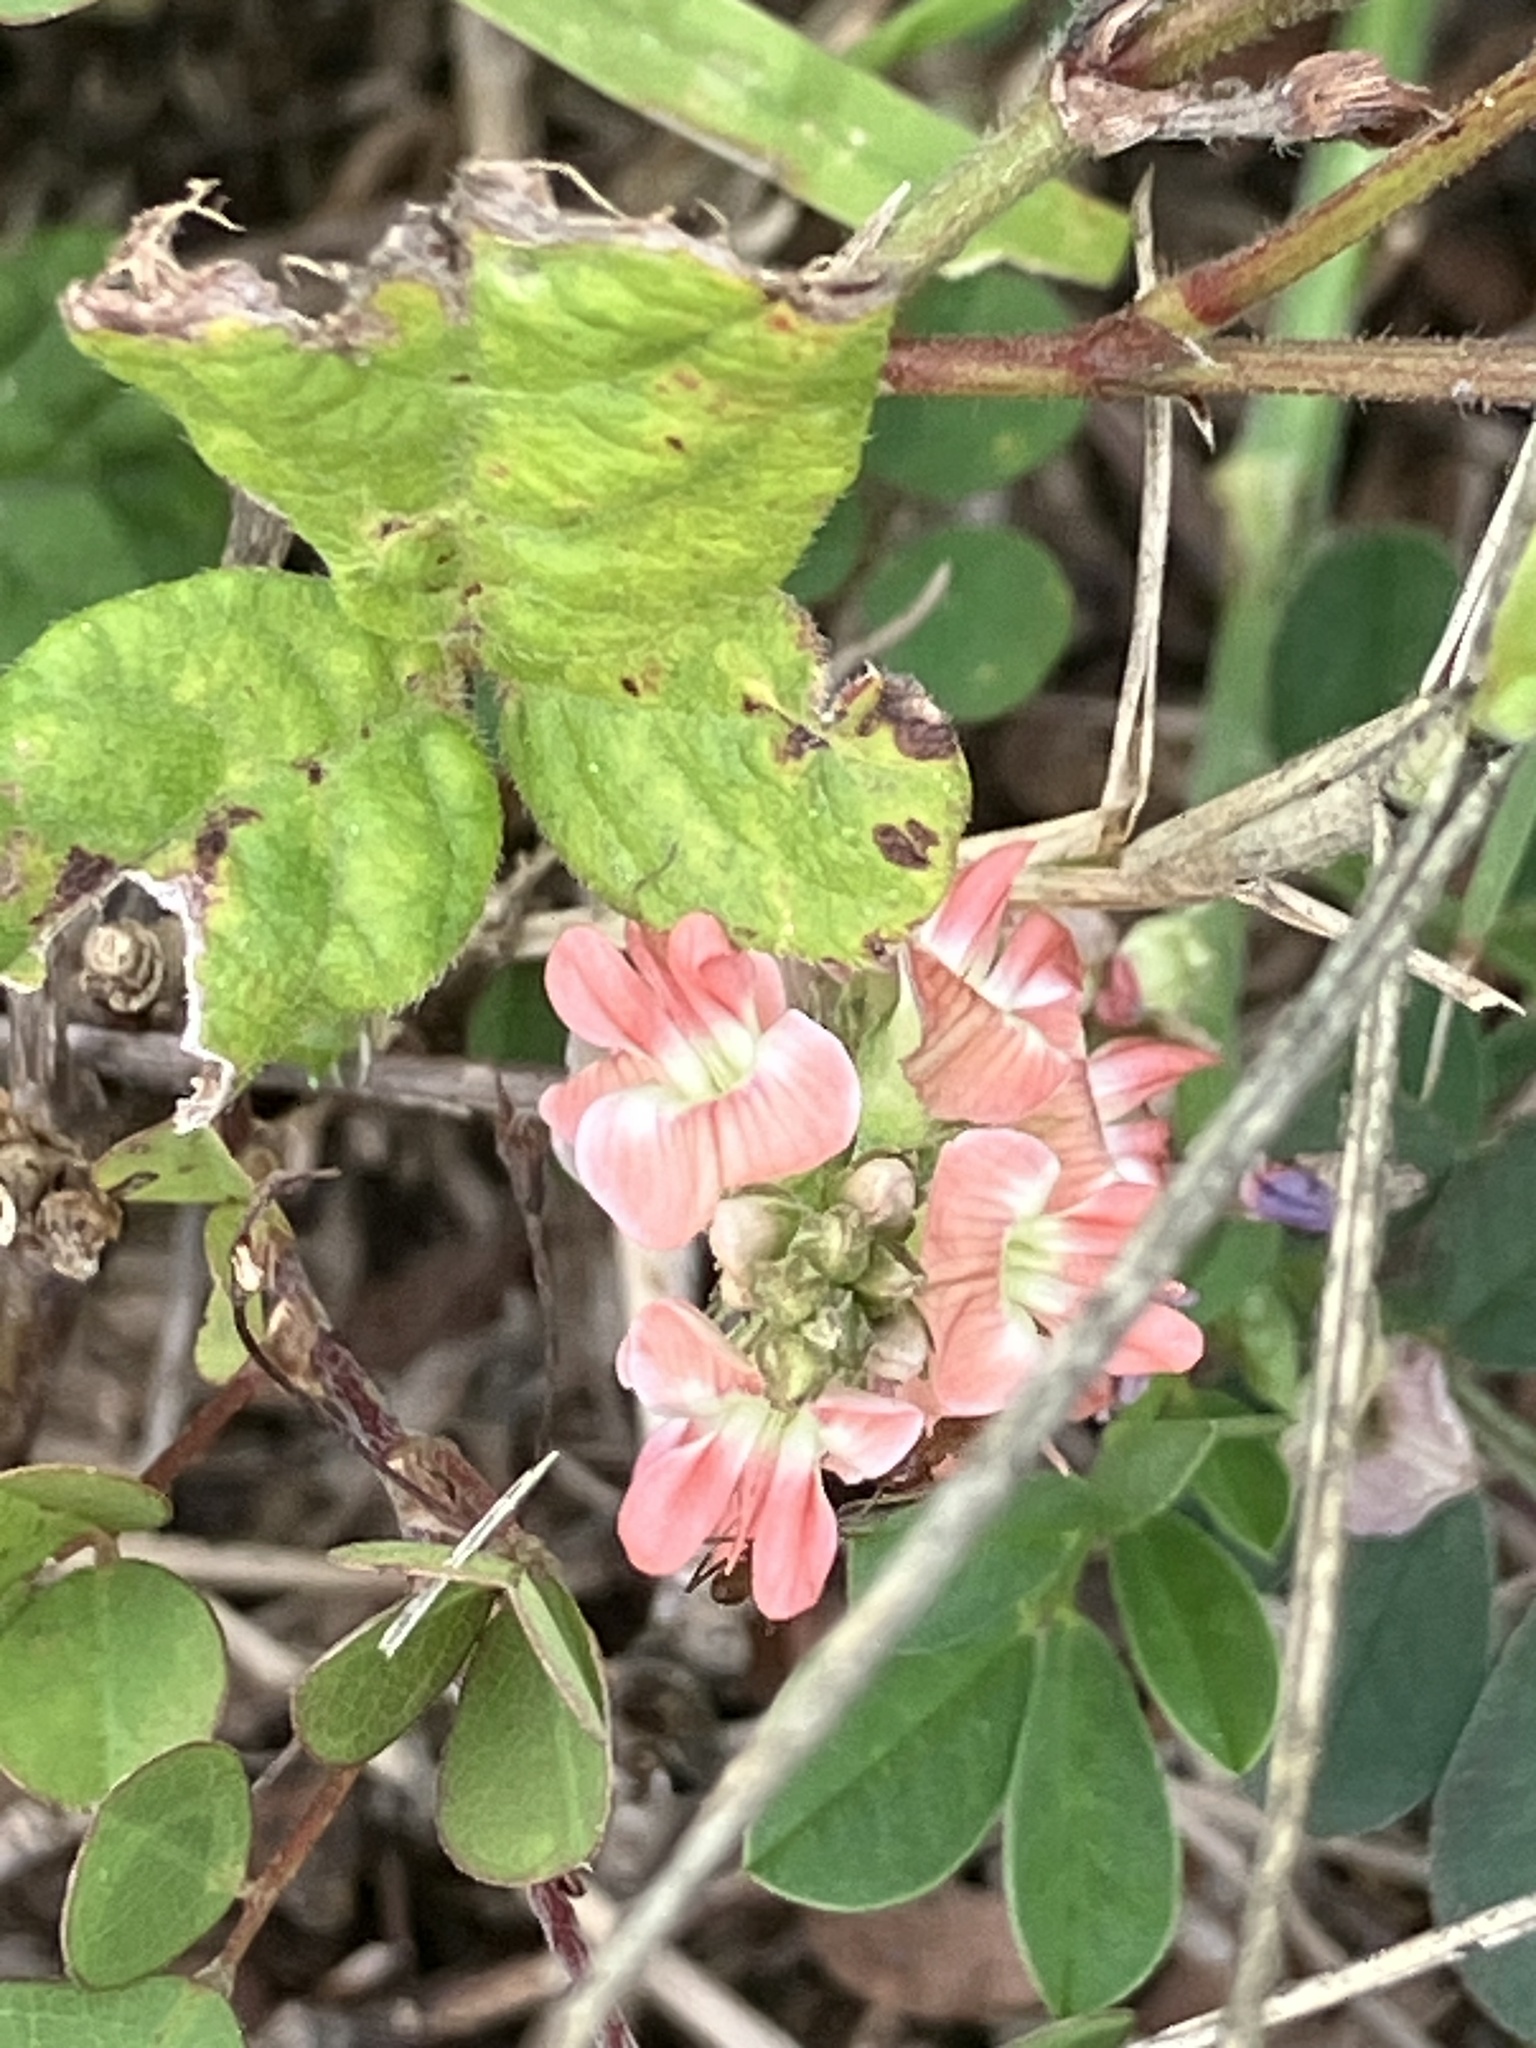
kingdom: Plantae
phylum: Tracheophyta
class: Magnoliopsida
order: Fabales
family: Fabaceae
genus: Indigofera
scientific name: Indigofera spicata
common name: Creeping indigo
